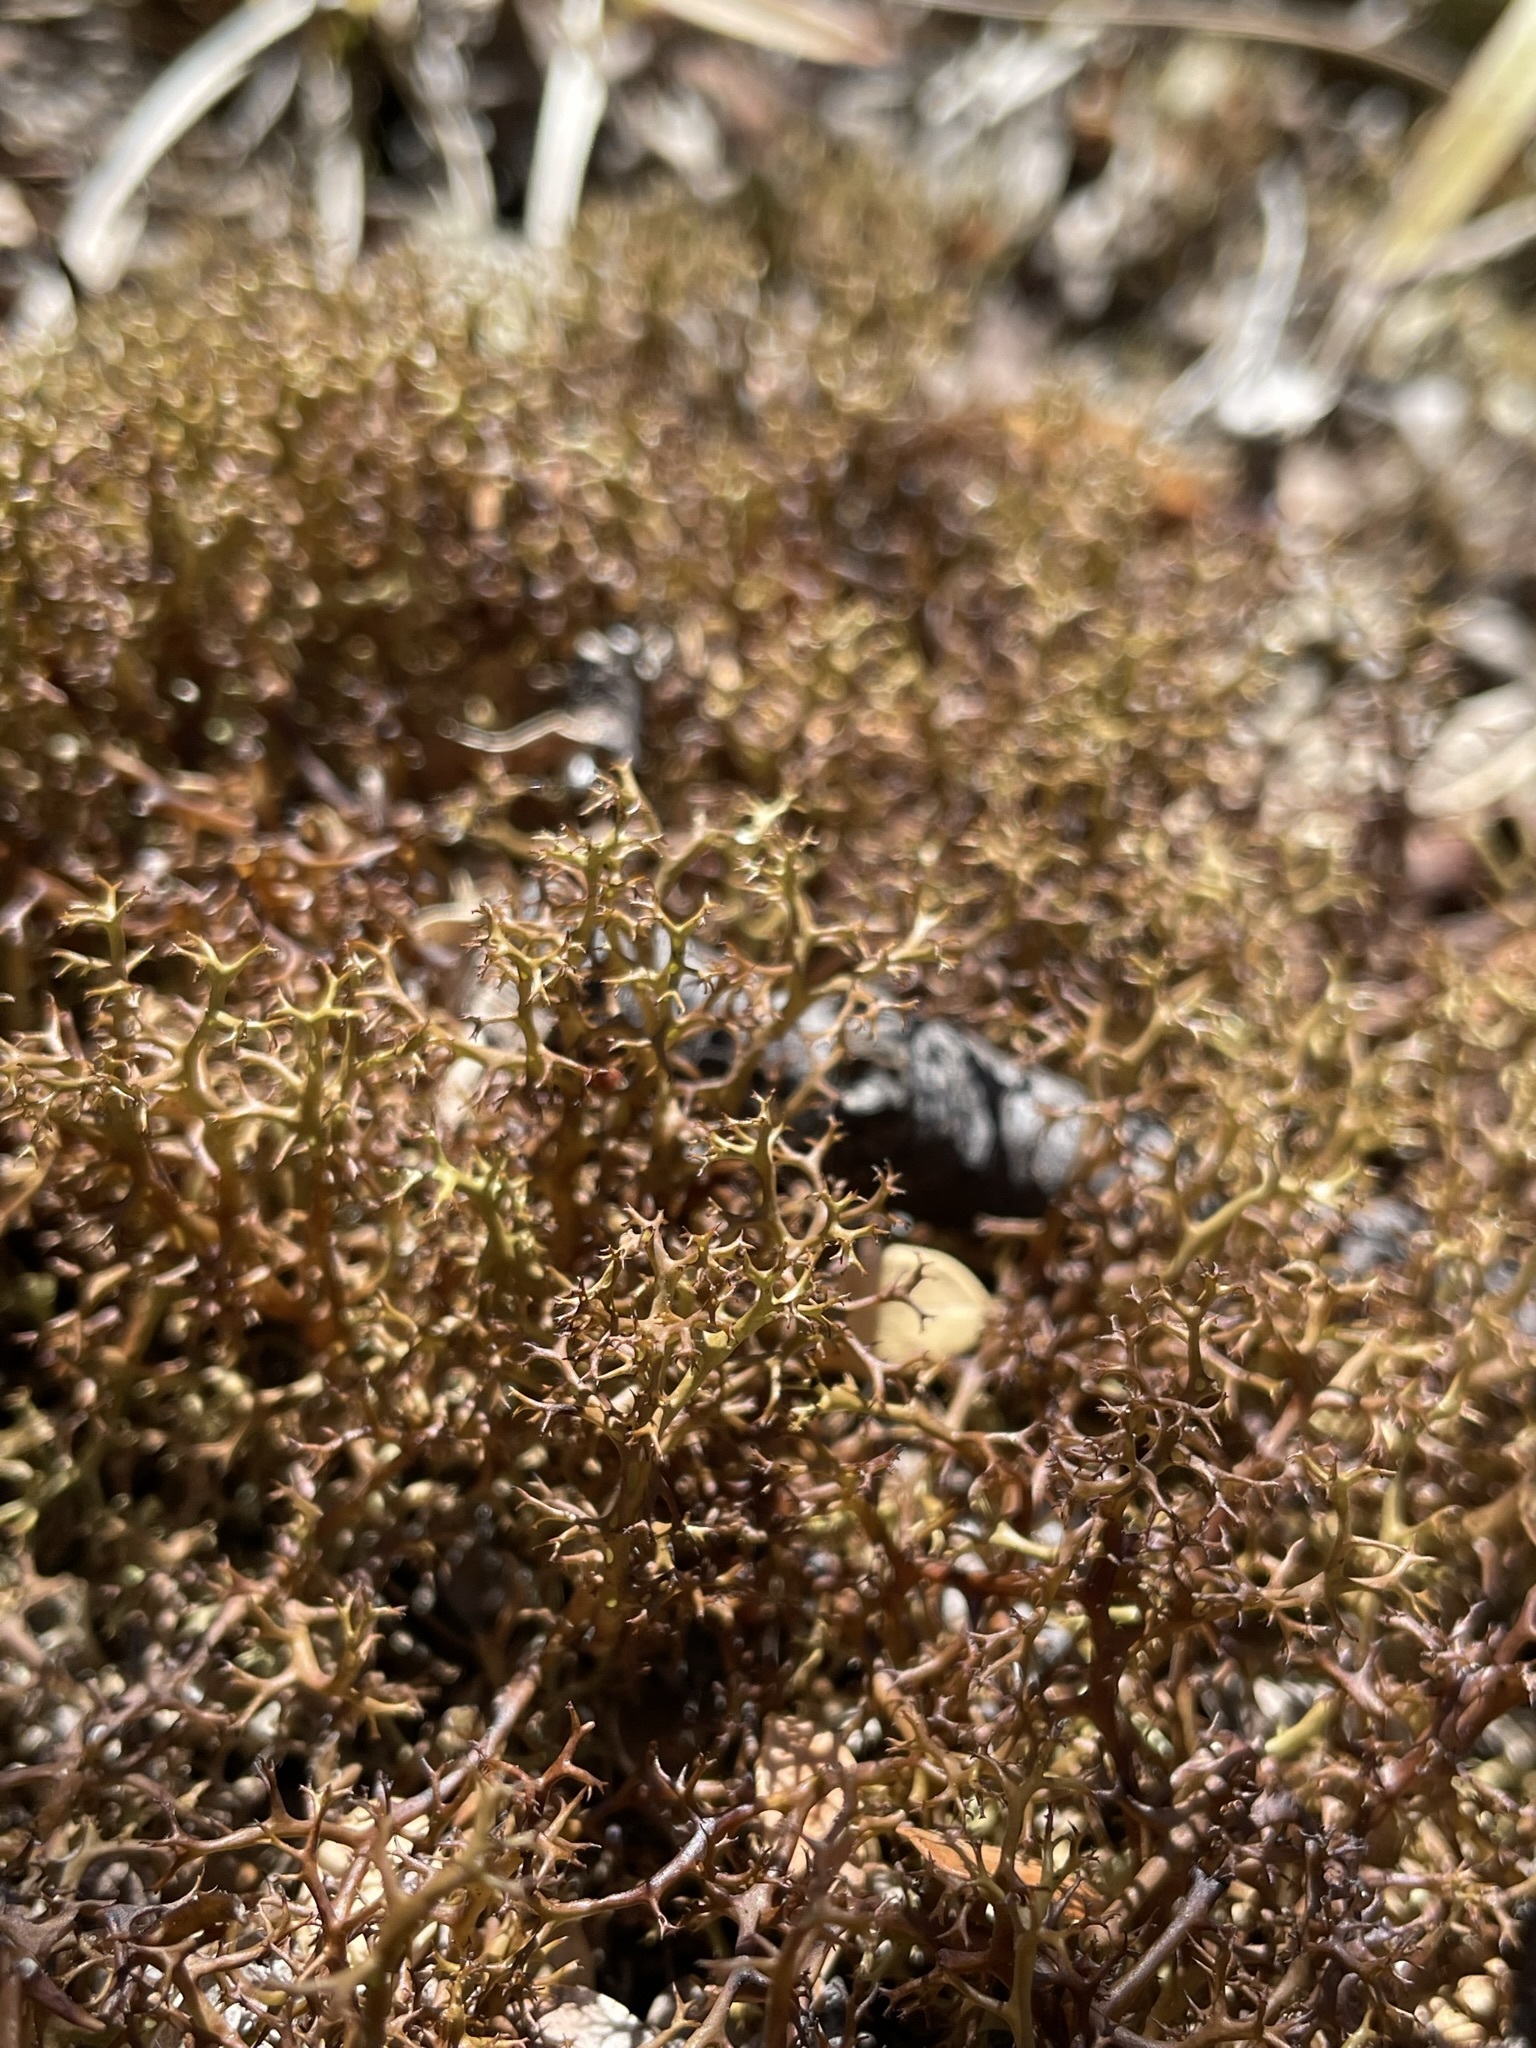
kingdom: Fungi
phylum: Ascomycota
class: Lecanoromycetes
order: Lecanorales
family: Cladoniaceae
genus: Cladia
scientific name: Cladia gorgonea
